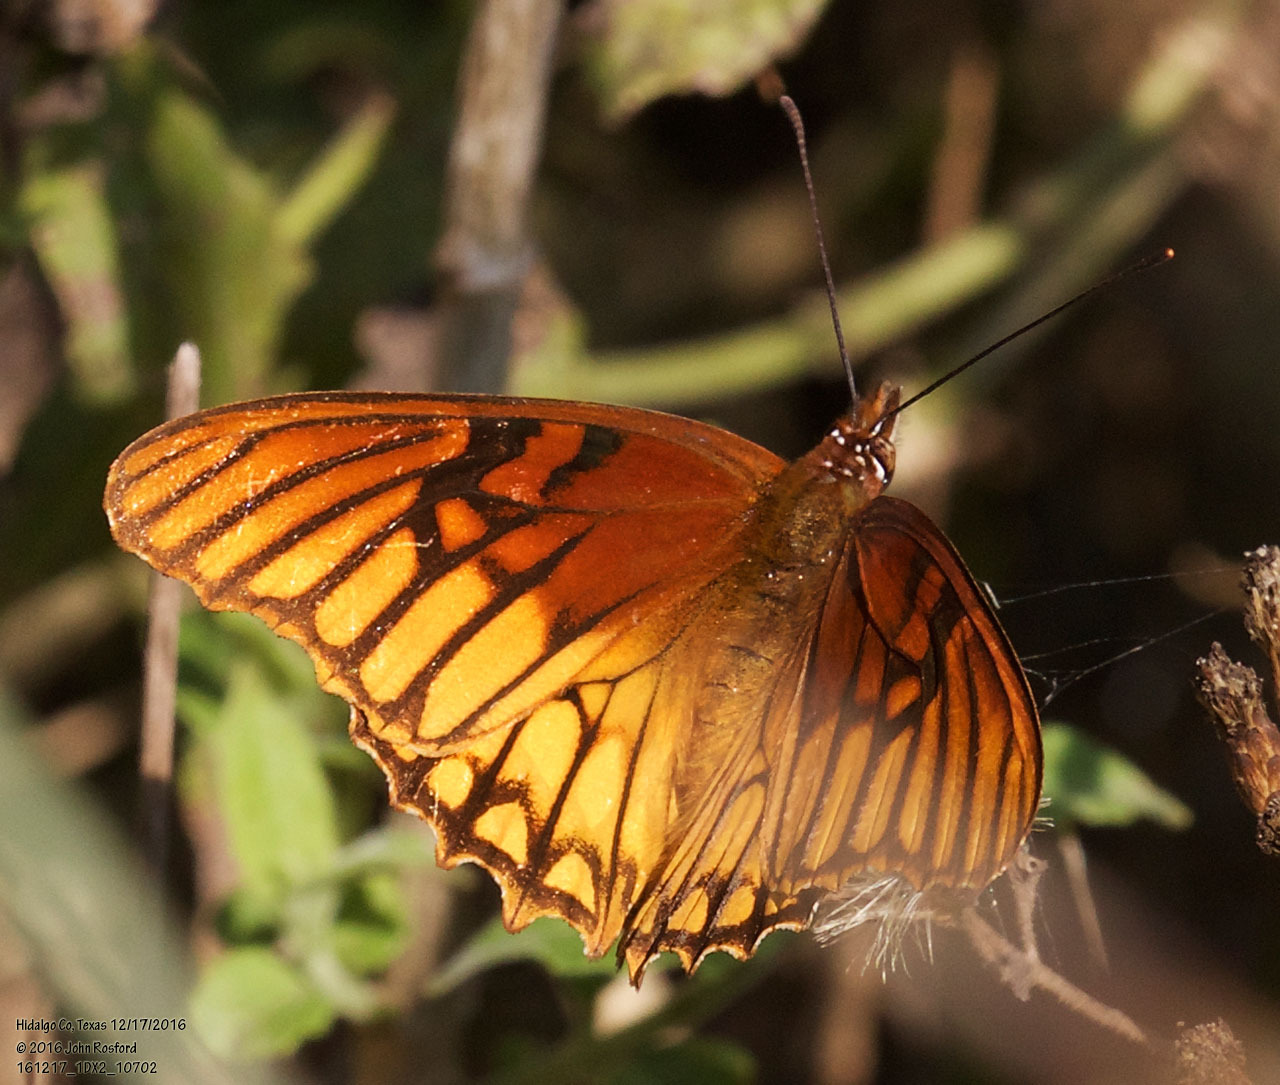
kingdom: Animalia
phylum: Arthropoda
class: Insecta
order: Lepidoptera
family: Nymphalidae
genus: Dione
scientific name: Dione moneta
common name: Mexican silverspot
